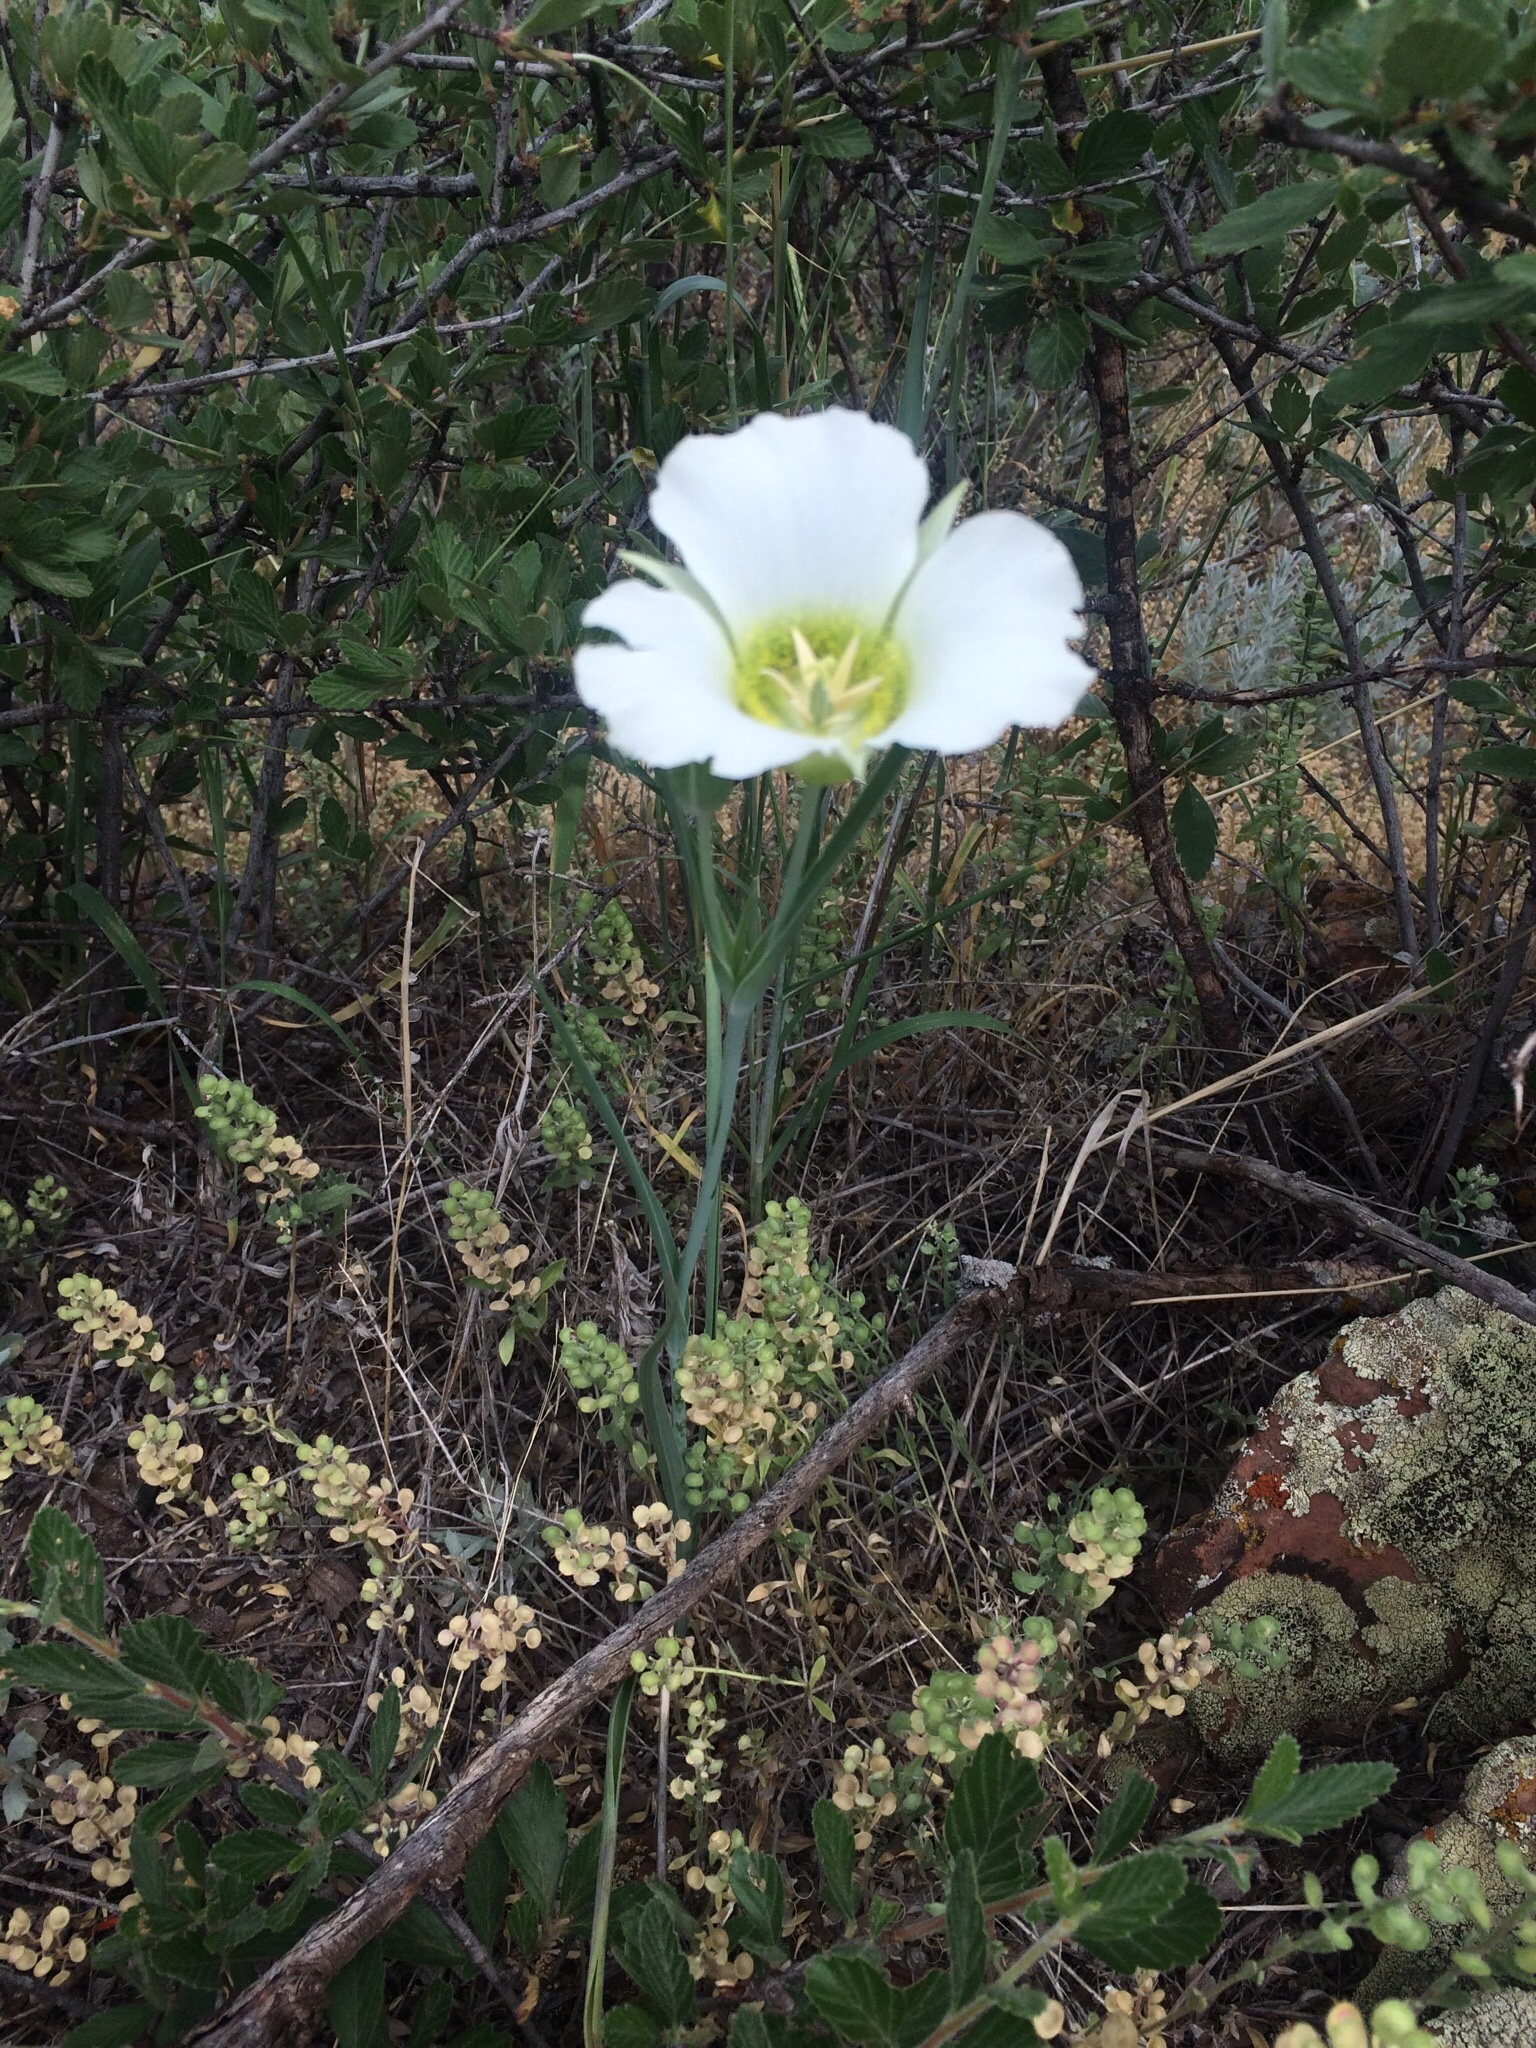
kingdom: Plantae
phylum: Tracheophyta
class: Liliopsida
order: Liliales
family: Liliaceae
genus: Calochortus
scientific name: Calochortus gunnisonii
